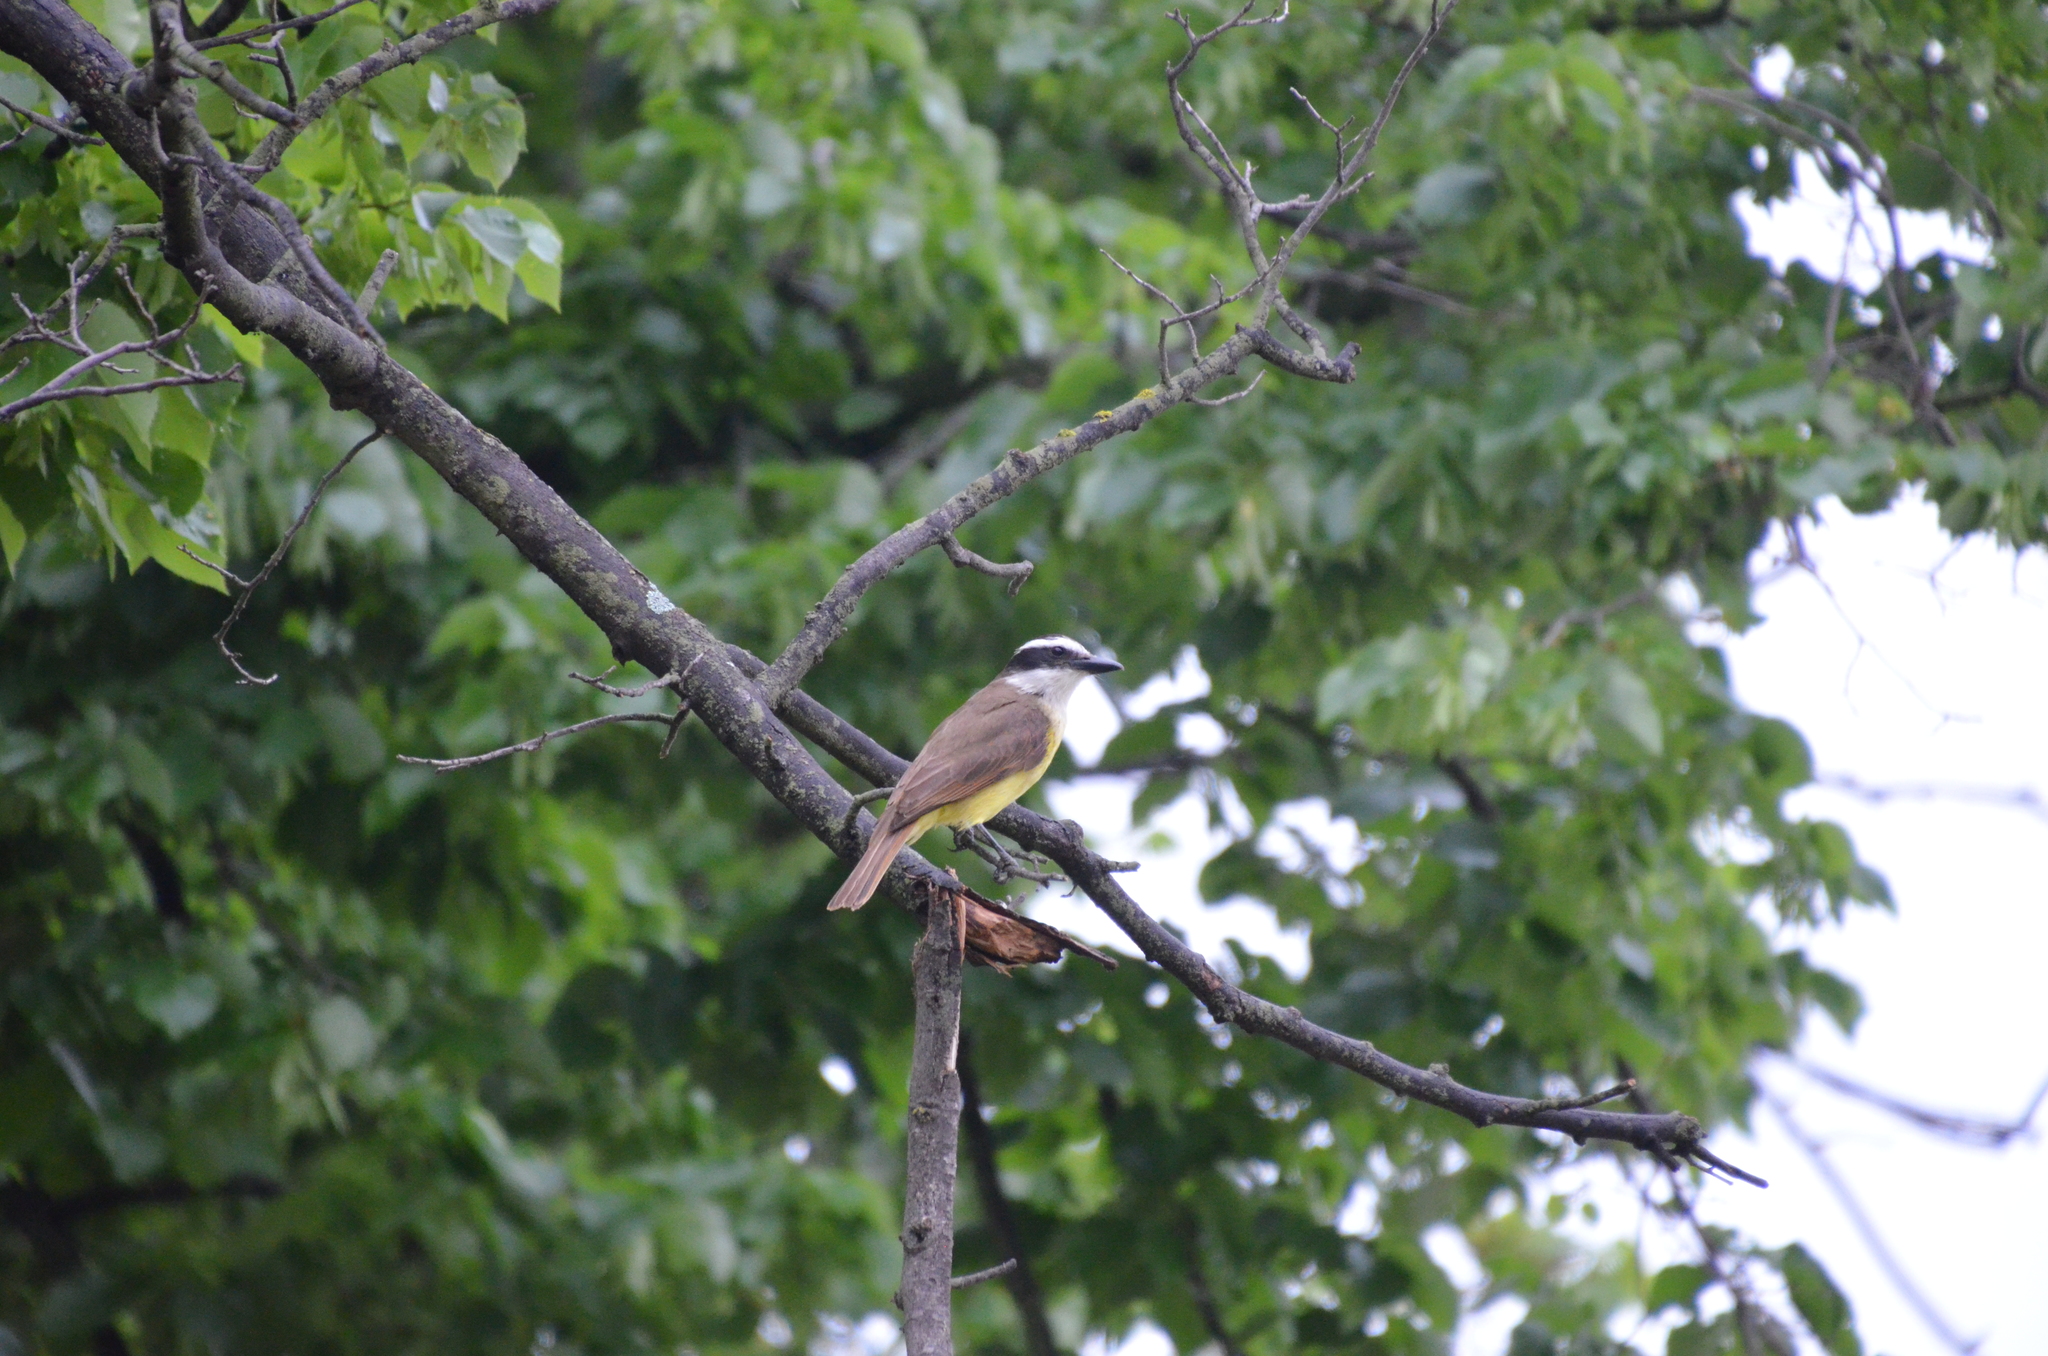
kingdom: Animalia
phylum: Chordata
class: Aves
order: Passeriformes
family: Tyrannidae
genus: Pitangus
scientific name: Pitangus sulphuratus
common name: Great kiskadee
